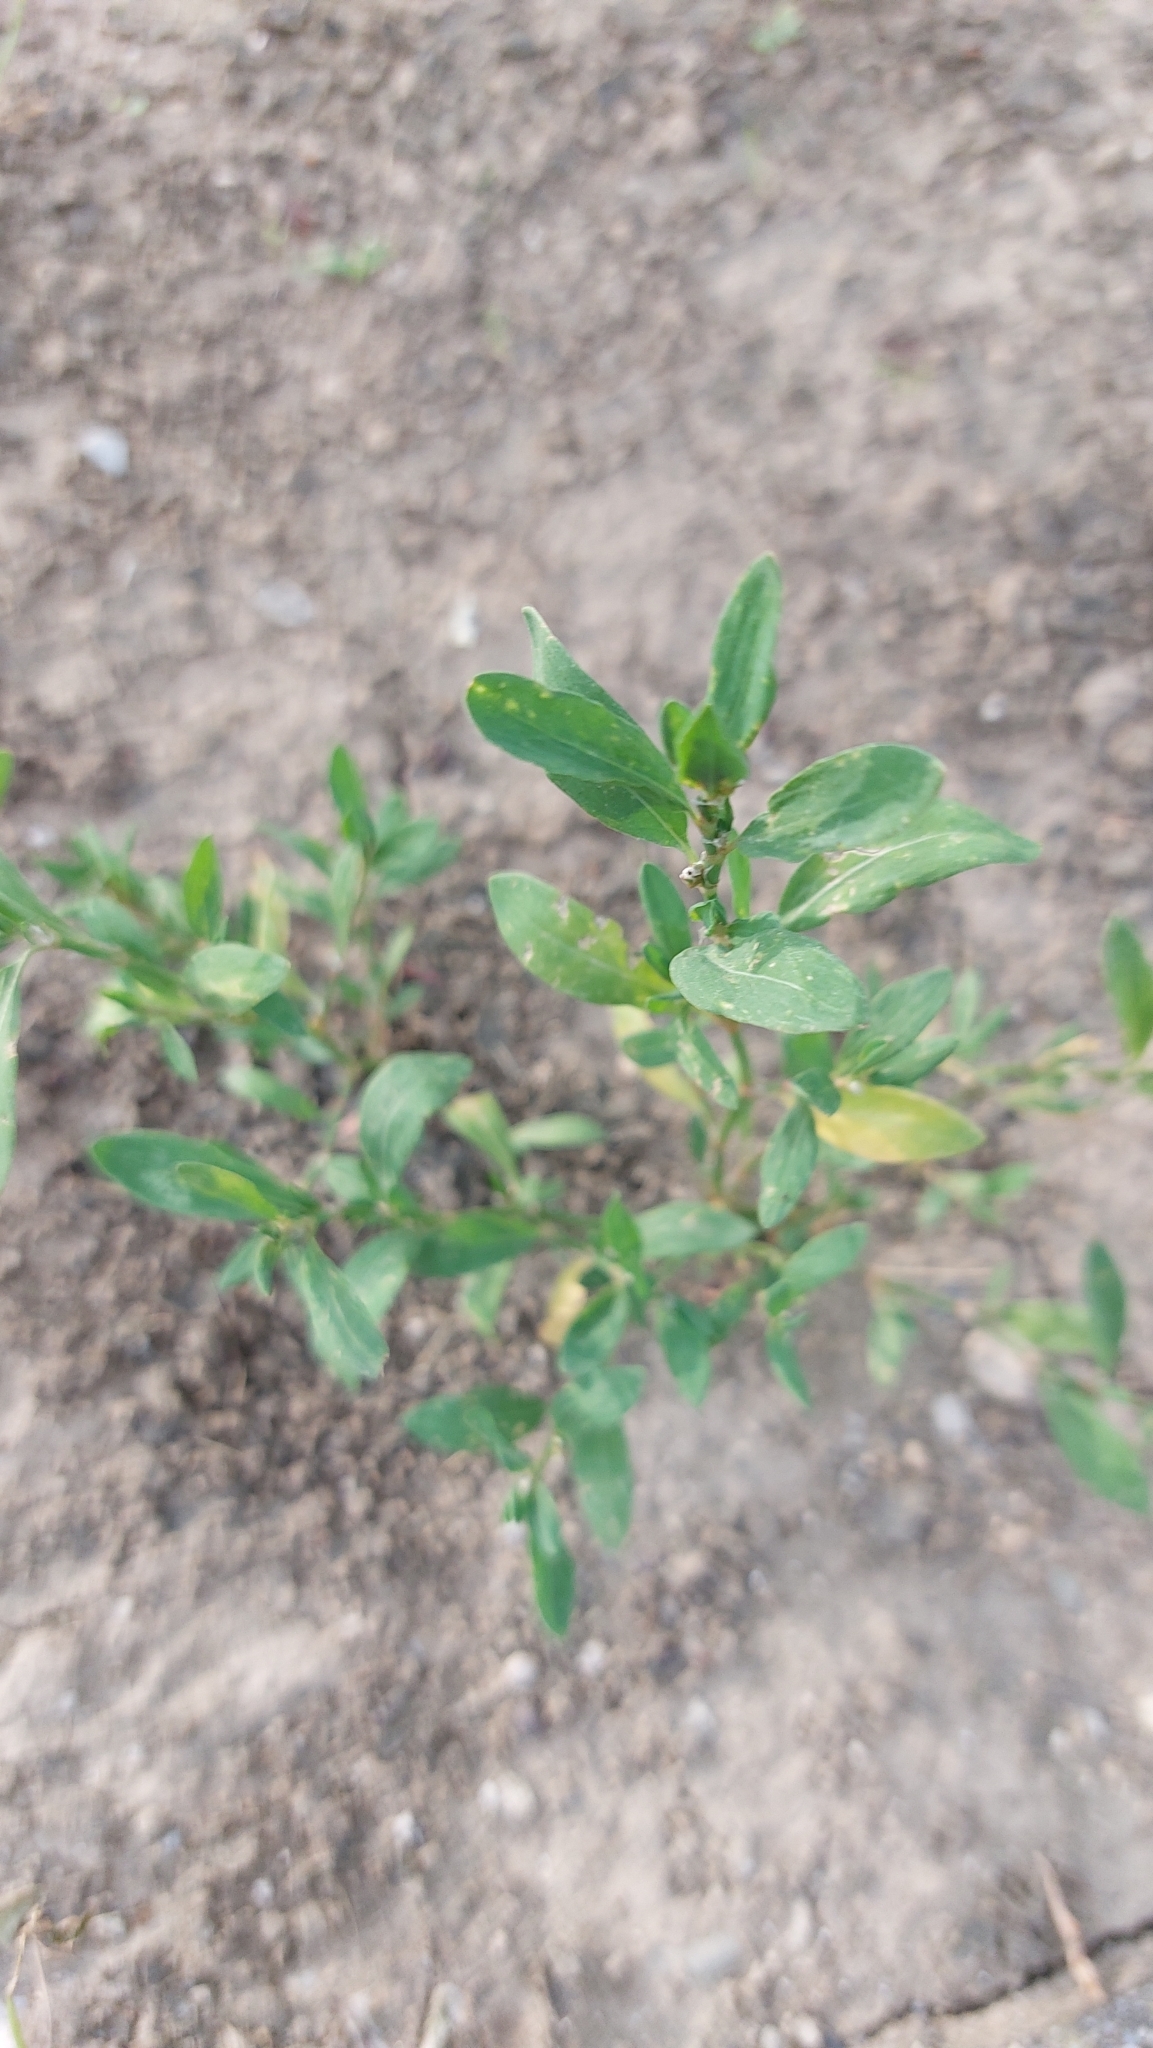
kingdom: Plantae
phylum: Tracheophyta
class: Magnoliopsida
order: Caryophyllales
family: Polygonaceae
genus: Polygonum
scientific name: Polygonum aviculare
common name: Prostrate knotweed
